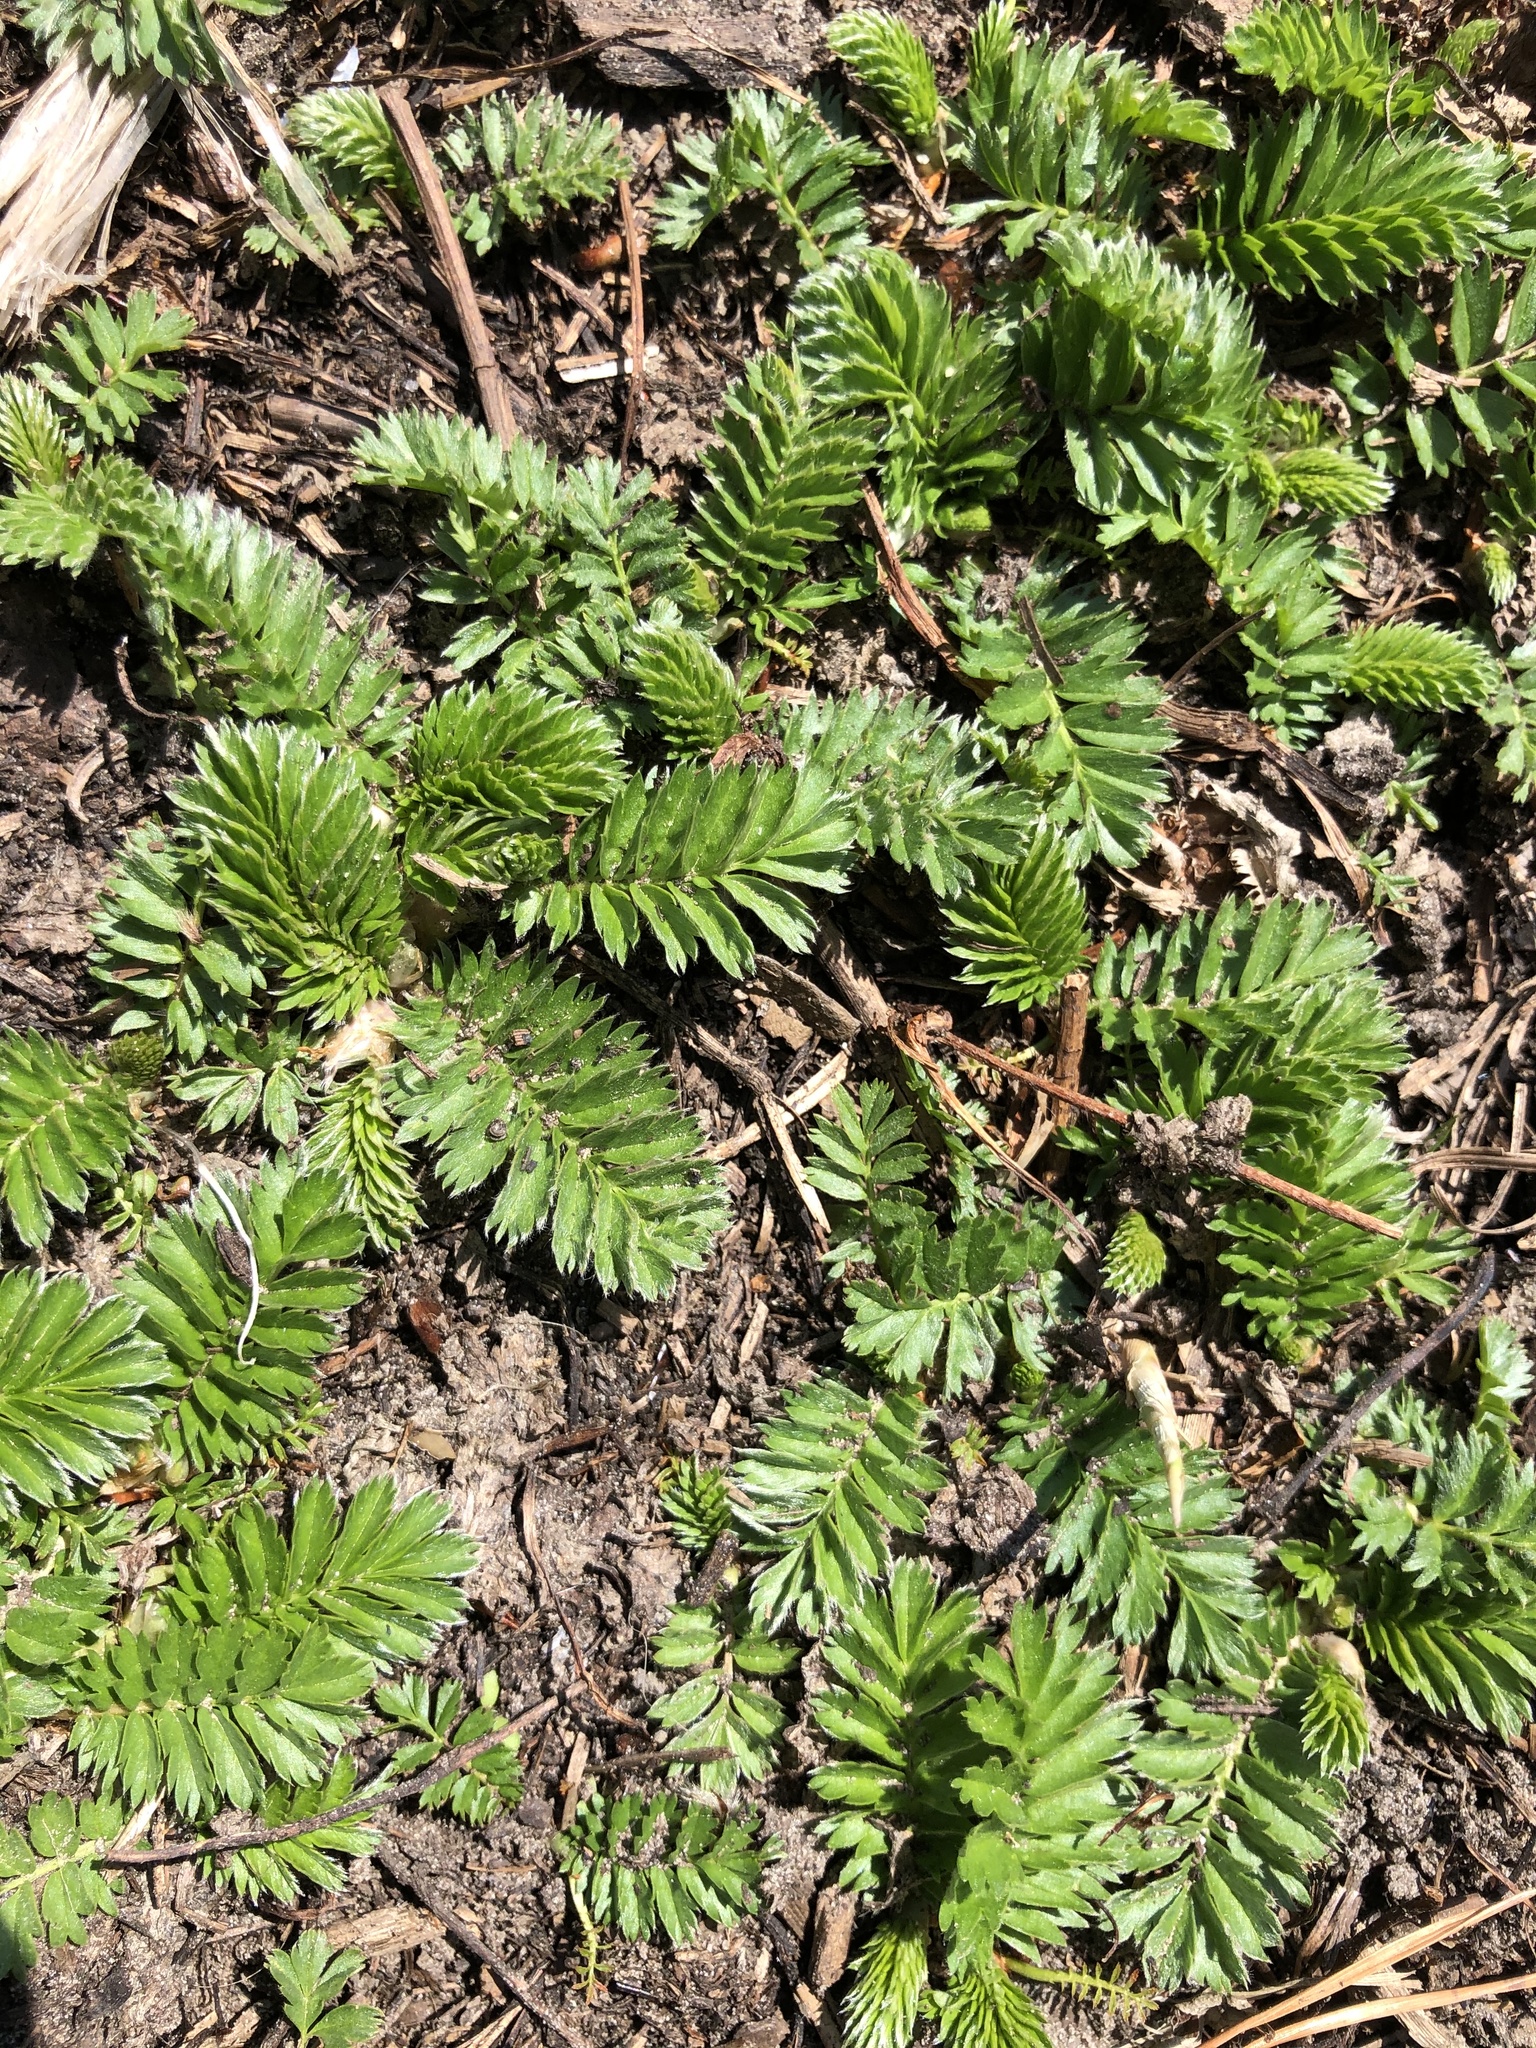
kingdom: Plantae
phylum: Tracheophyta
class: Magnoliopsida
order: Rosales
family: Rosaceae
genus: Argentina
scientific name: Argentina anserina
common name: Common silverweed
